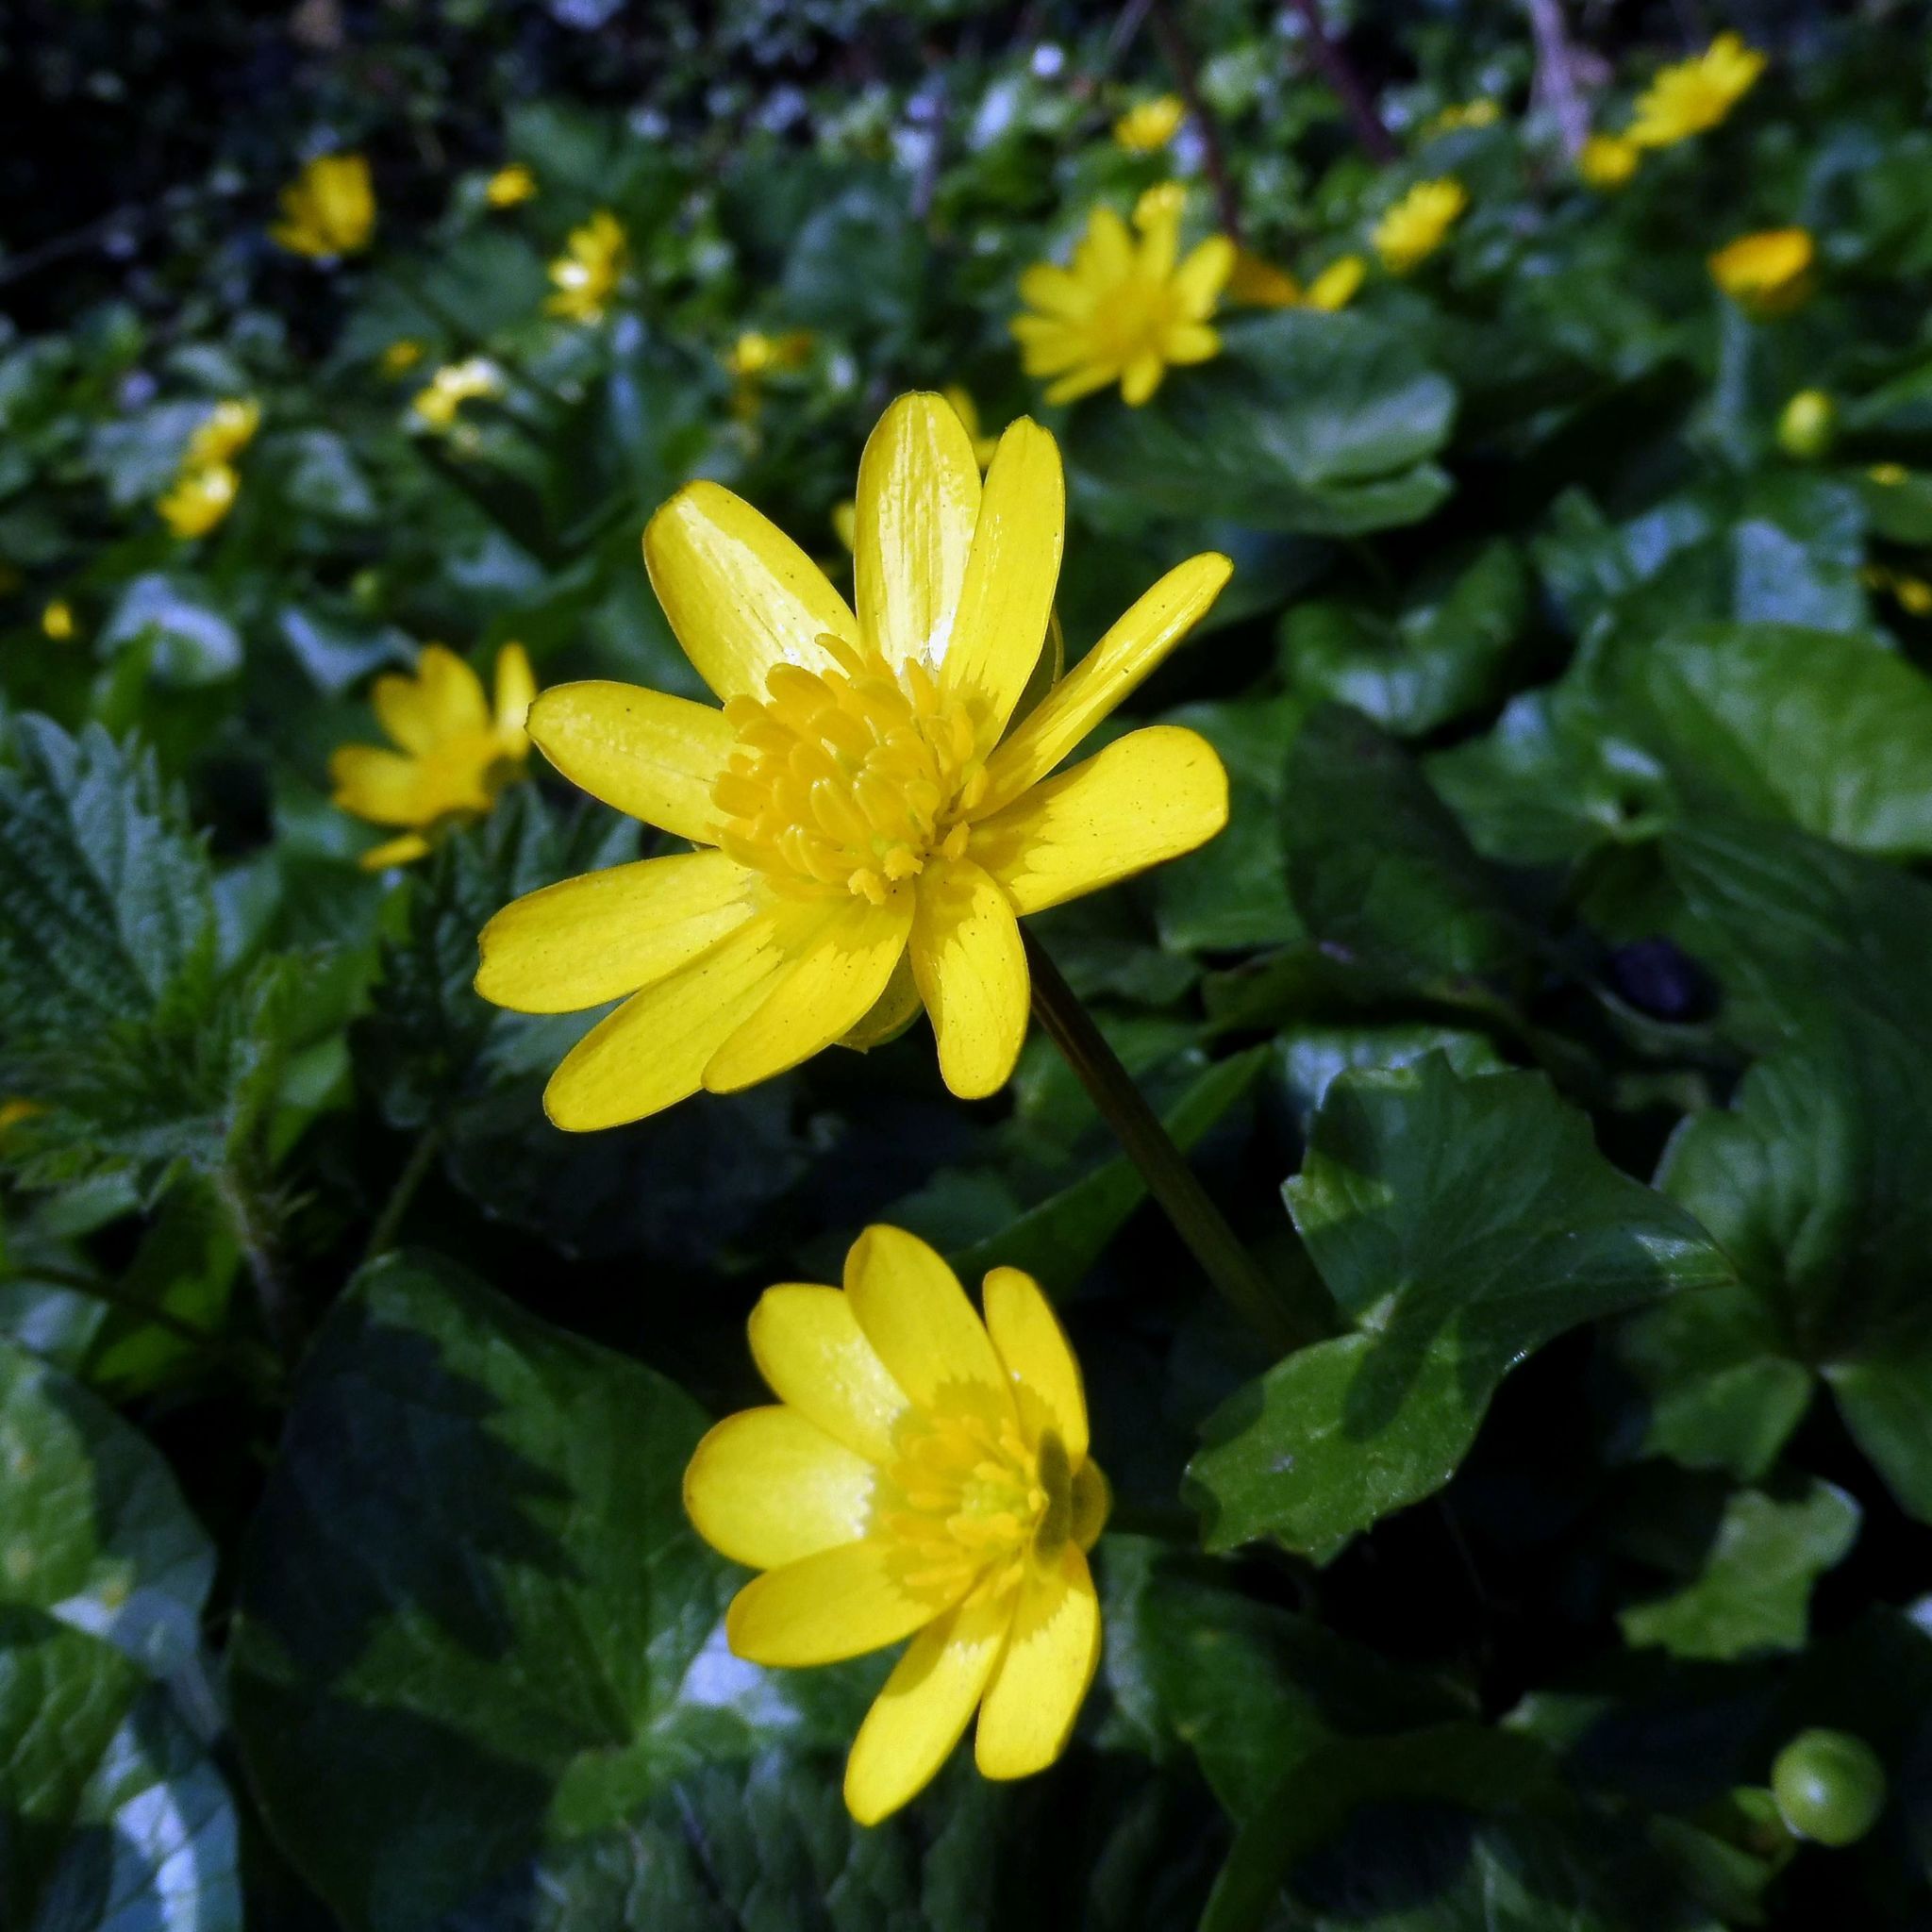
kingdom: Plantae
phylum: Tracheophyta
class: Magnoliopsida
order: Ranunculales
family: Ranunculaceae
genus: Ficaria
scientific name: Ficaria verna
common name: Lesser celandine
